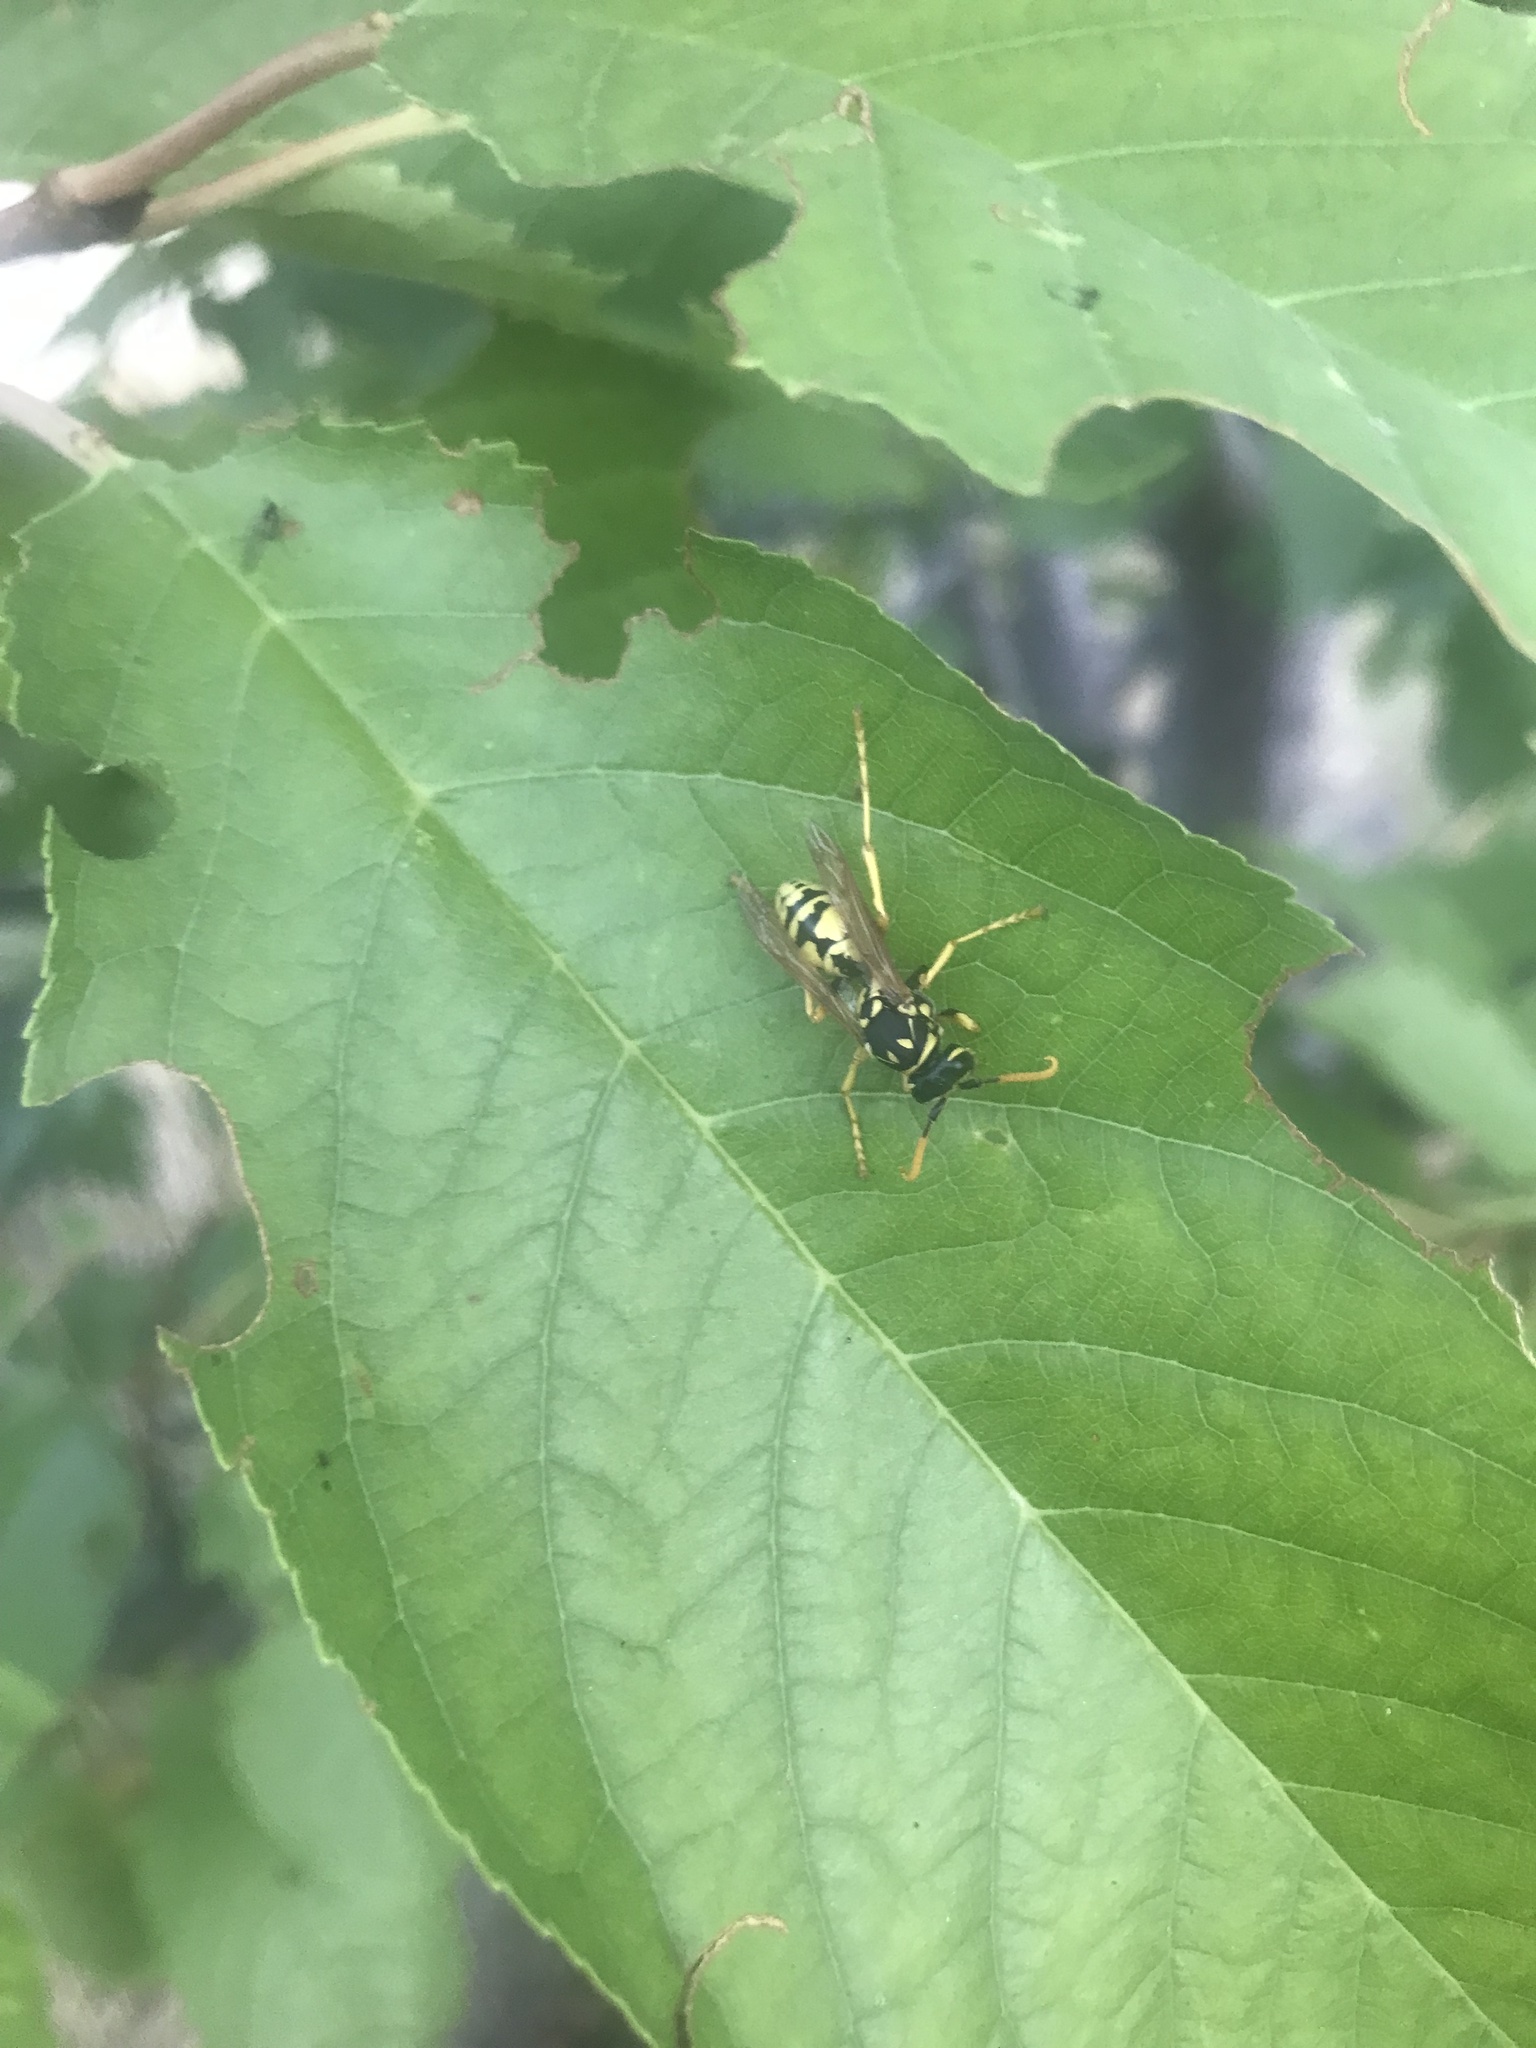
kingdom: Animalia
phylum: Arthropoda
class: Insecta
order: Hymenoptera
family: Eumenidae
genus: Polistes
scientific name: Polistes dominula
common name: Paper wasp
